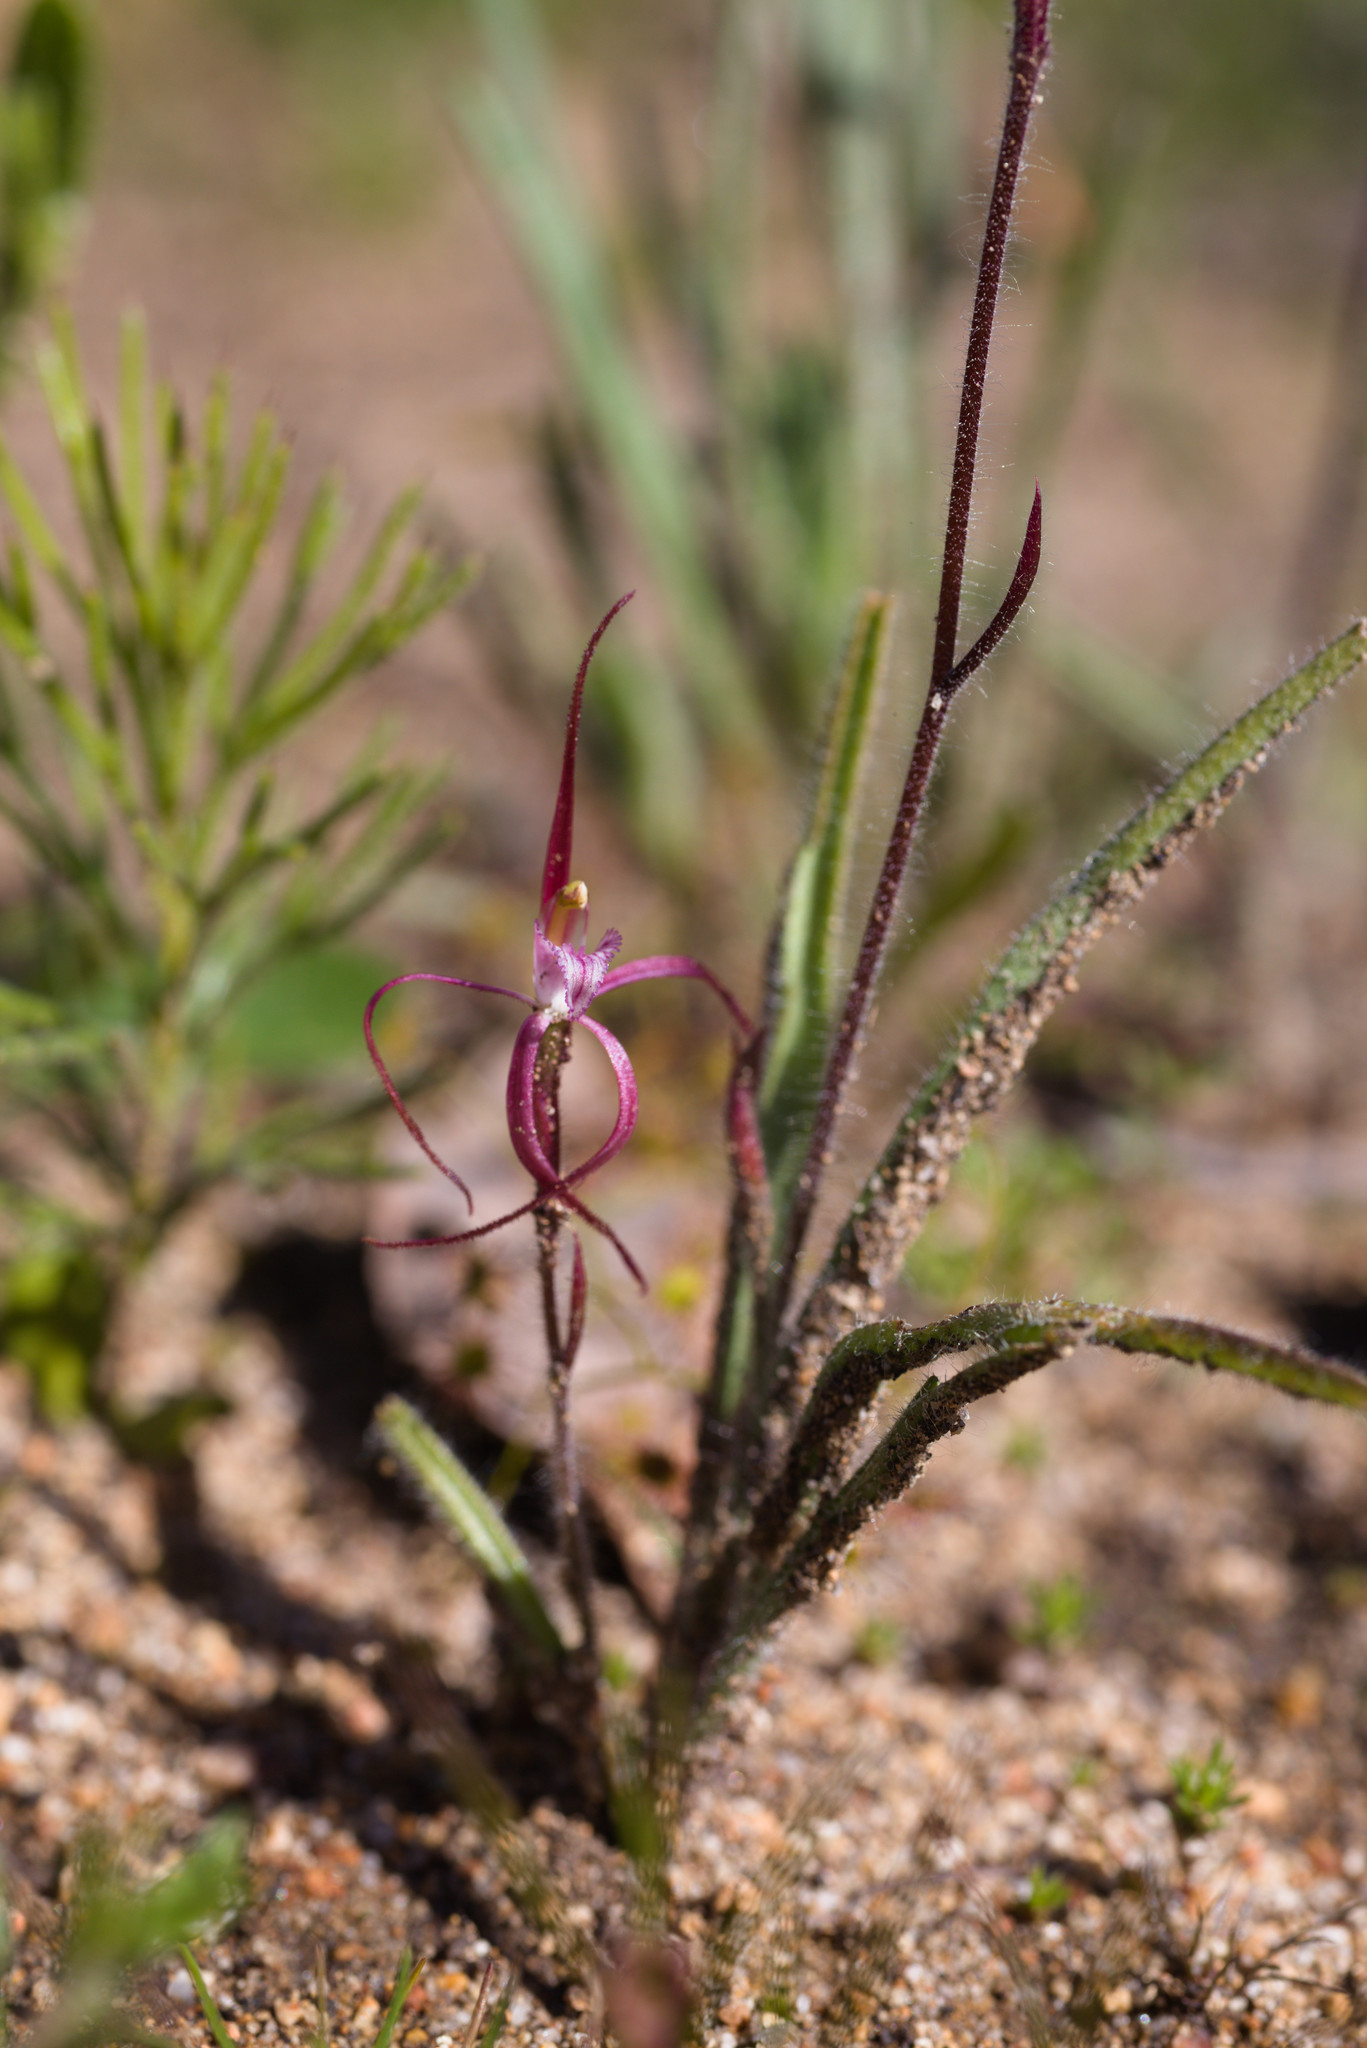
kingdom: Plantae
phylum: Tracheophyta
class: Liliopsida
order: Asparagales
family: Orchidaceae
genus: Caladenia
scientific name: Caladenia footeana
